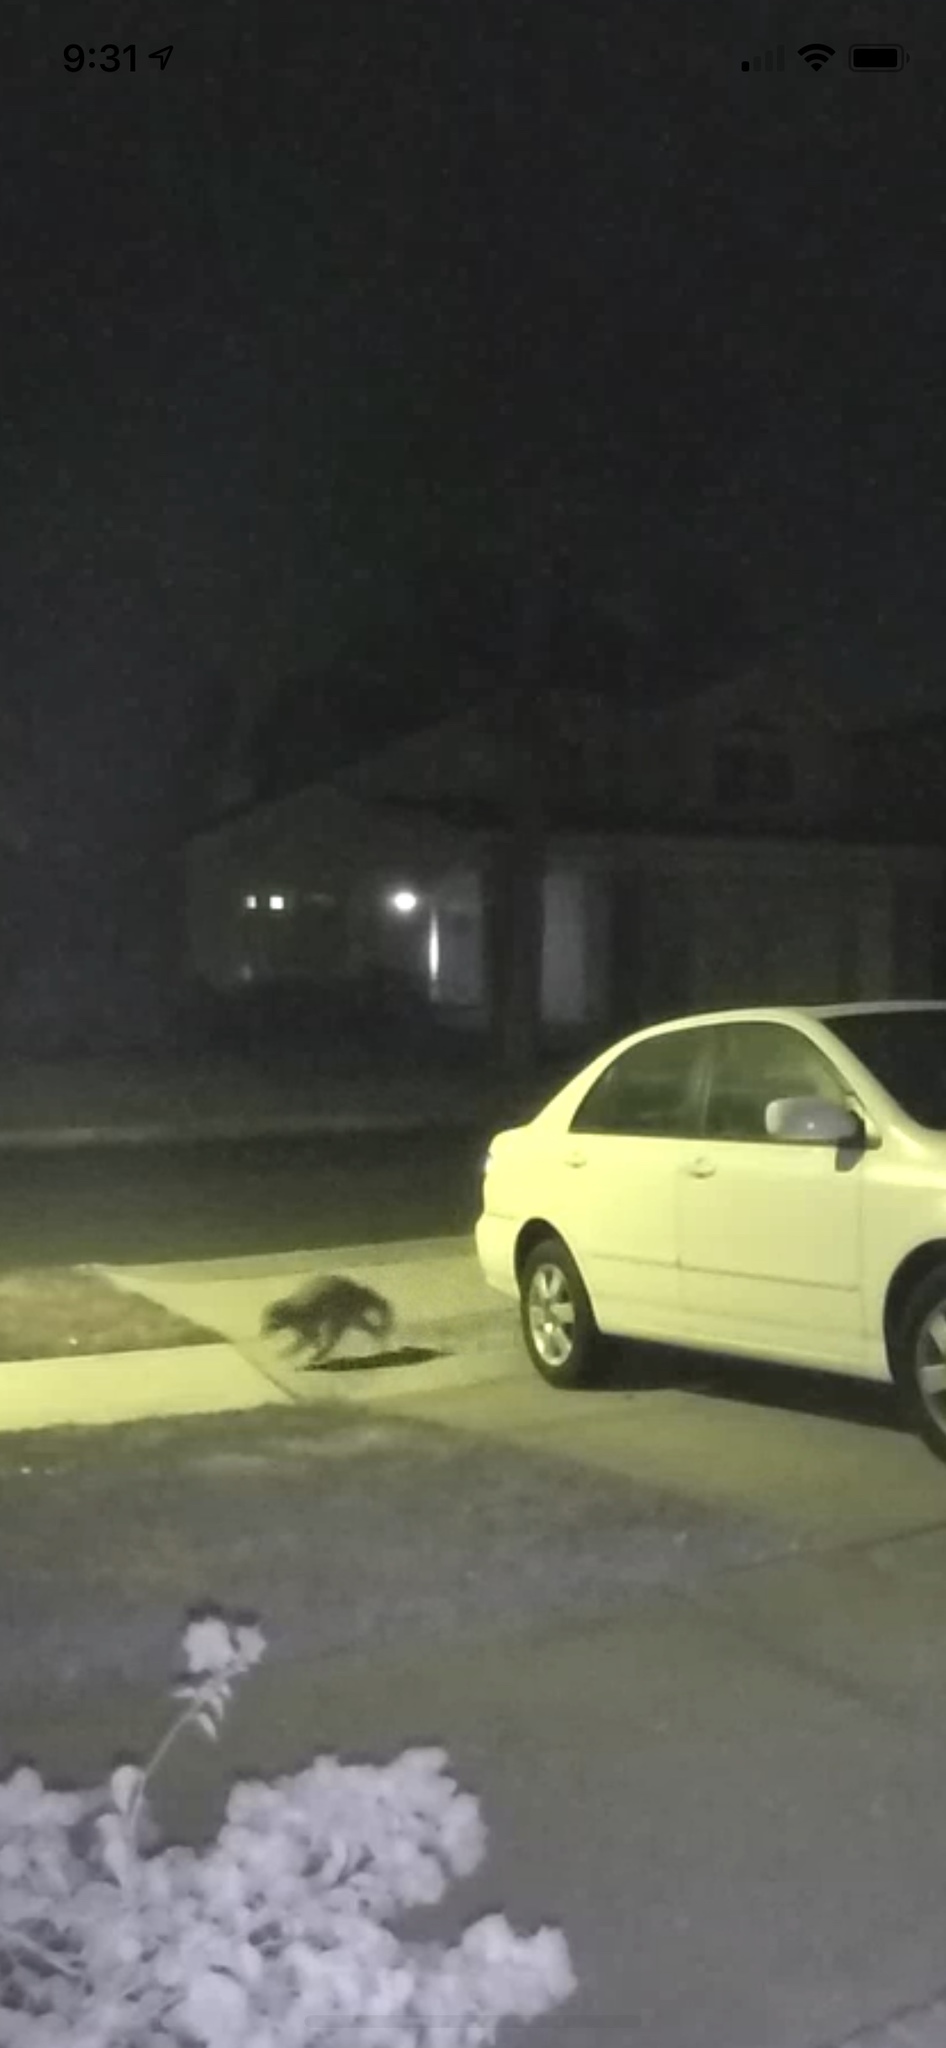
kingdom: Animalia
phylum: Chordata
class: Mammalia
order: Carnivora
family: Procyonidae
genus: Procyon
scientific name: Procyon lotor
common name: Raccoon
